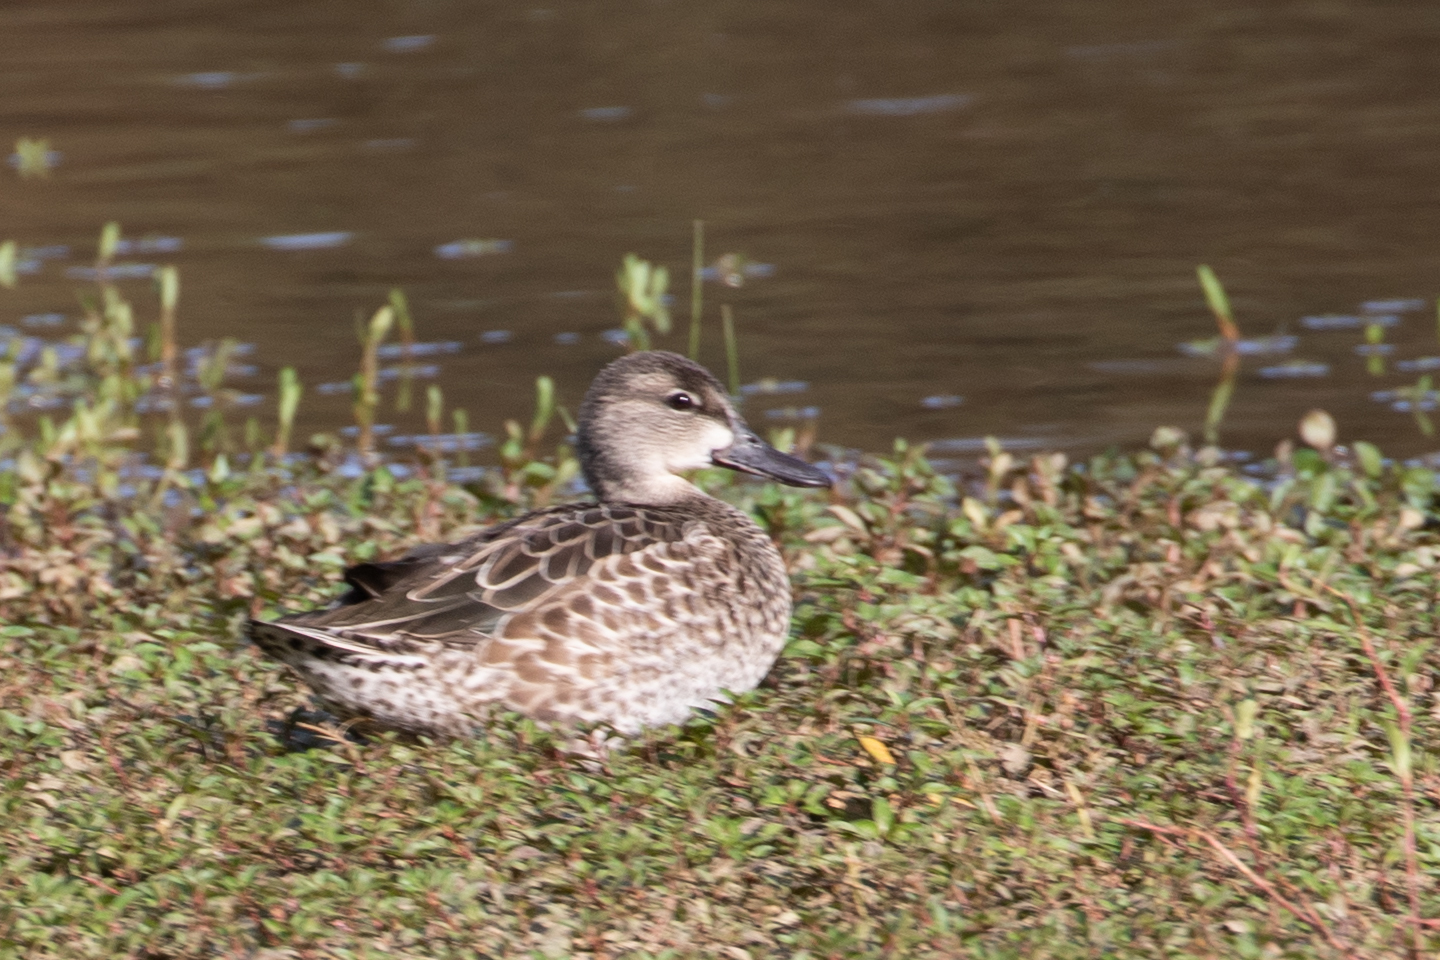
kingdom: Animalia
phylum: Chordata
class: Aves
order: Anseriformes
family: Anatidae
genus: Spatula
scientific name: Spatula discors
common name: Blue-winged teal
